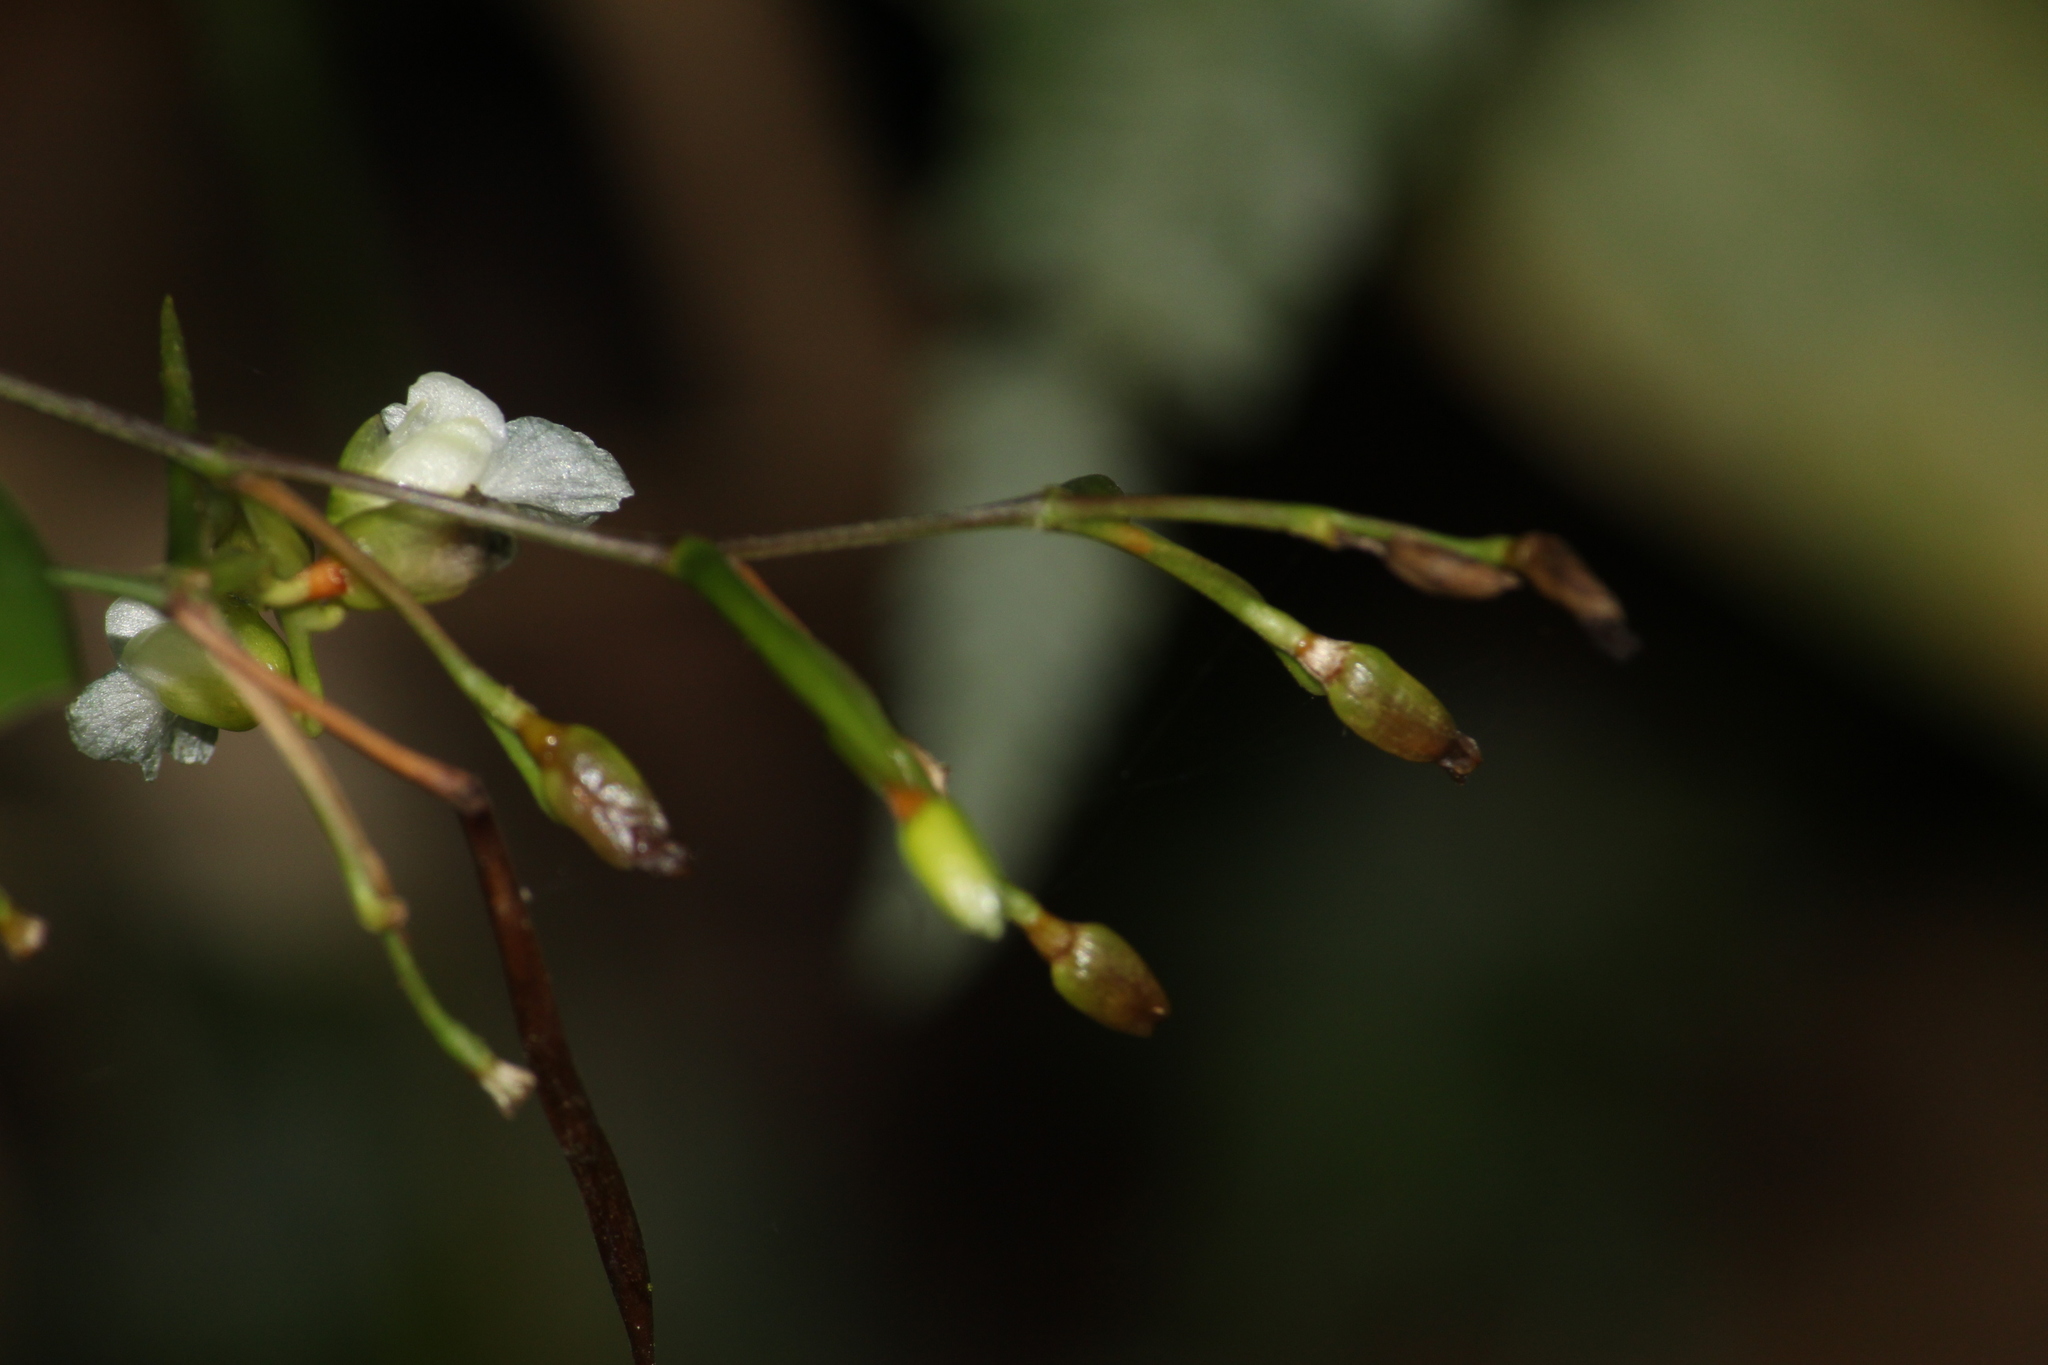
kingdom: Plantae
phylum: Tracheophyta
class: Liliopsida
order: Zingiberales
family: Marantaceae
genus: Stromanthe
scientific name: Stromanthe tonckat
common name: Stromanthe
